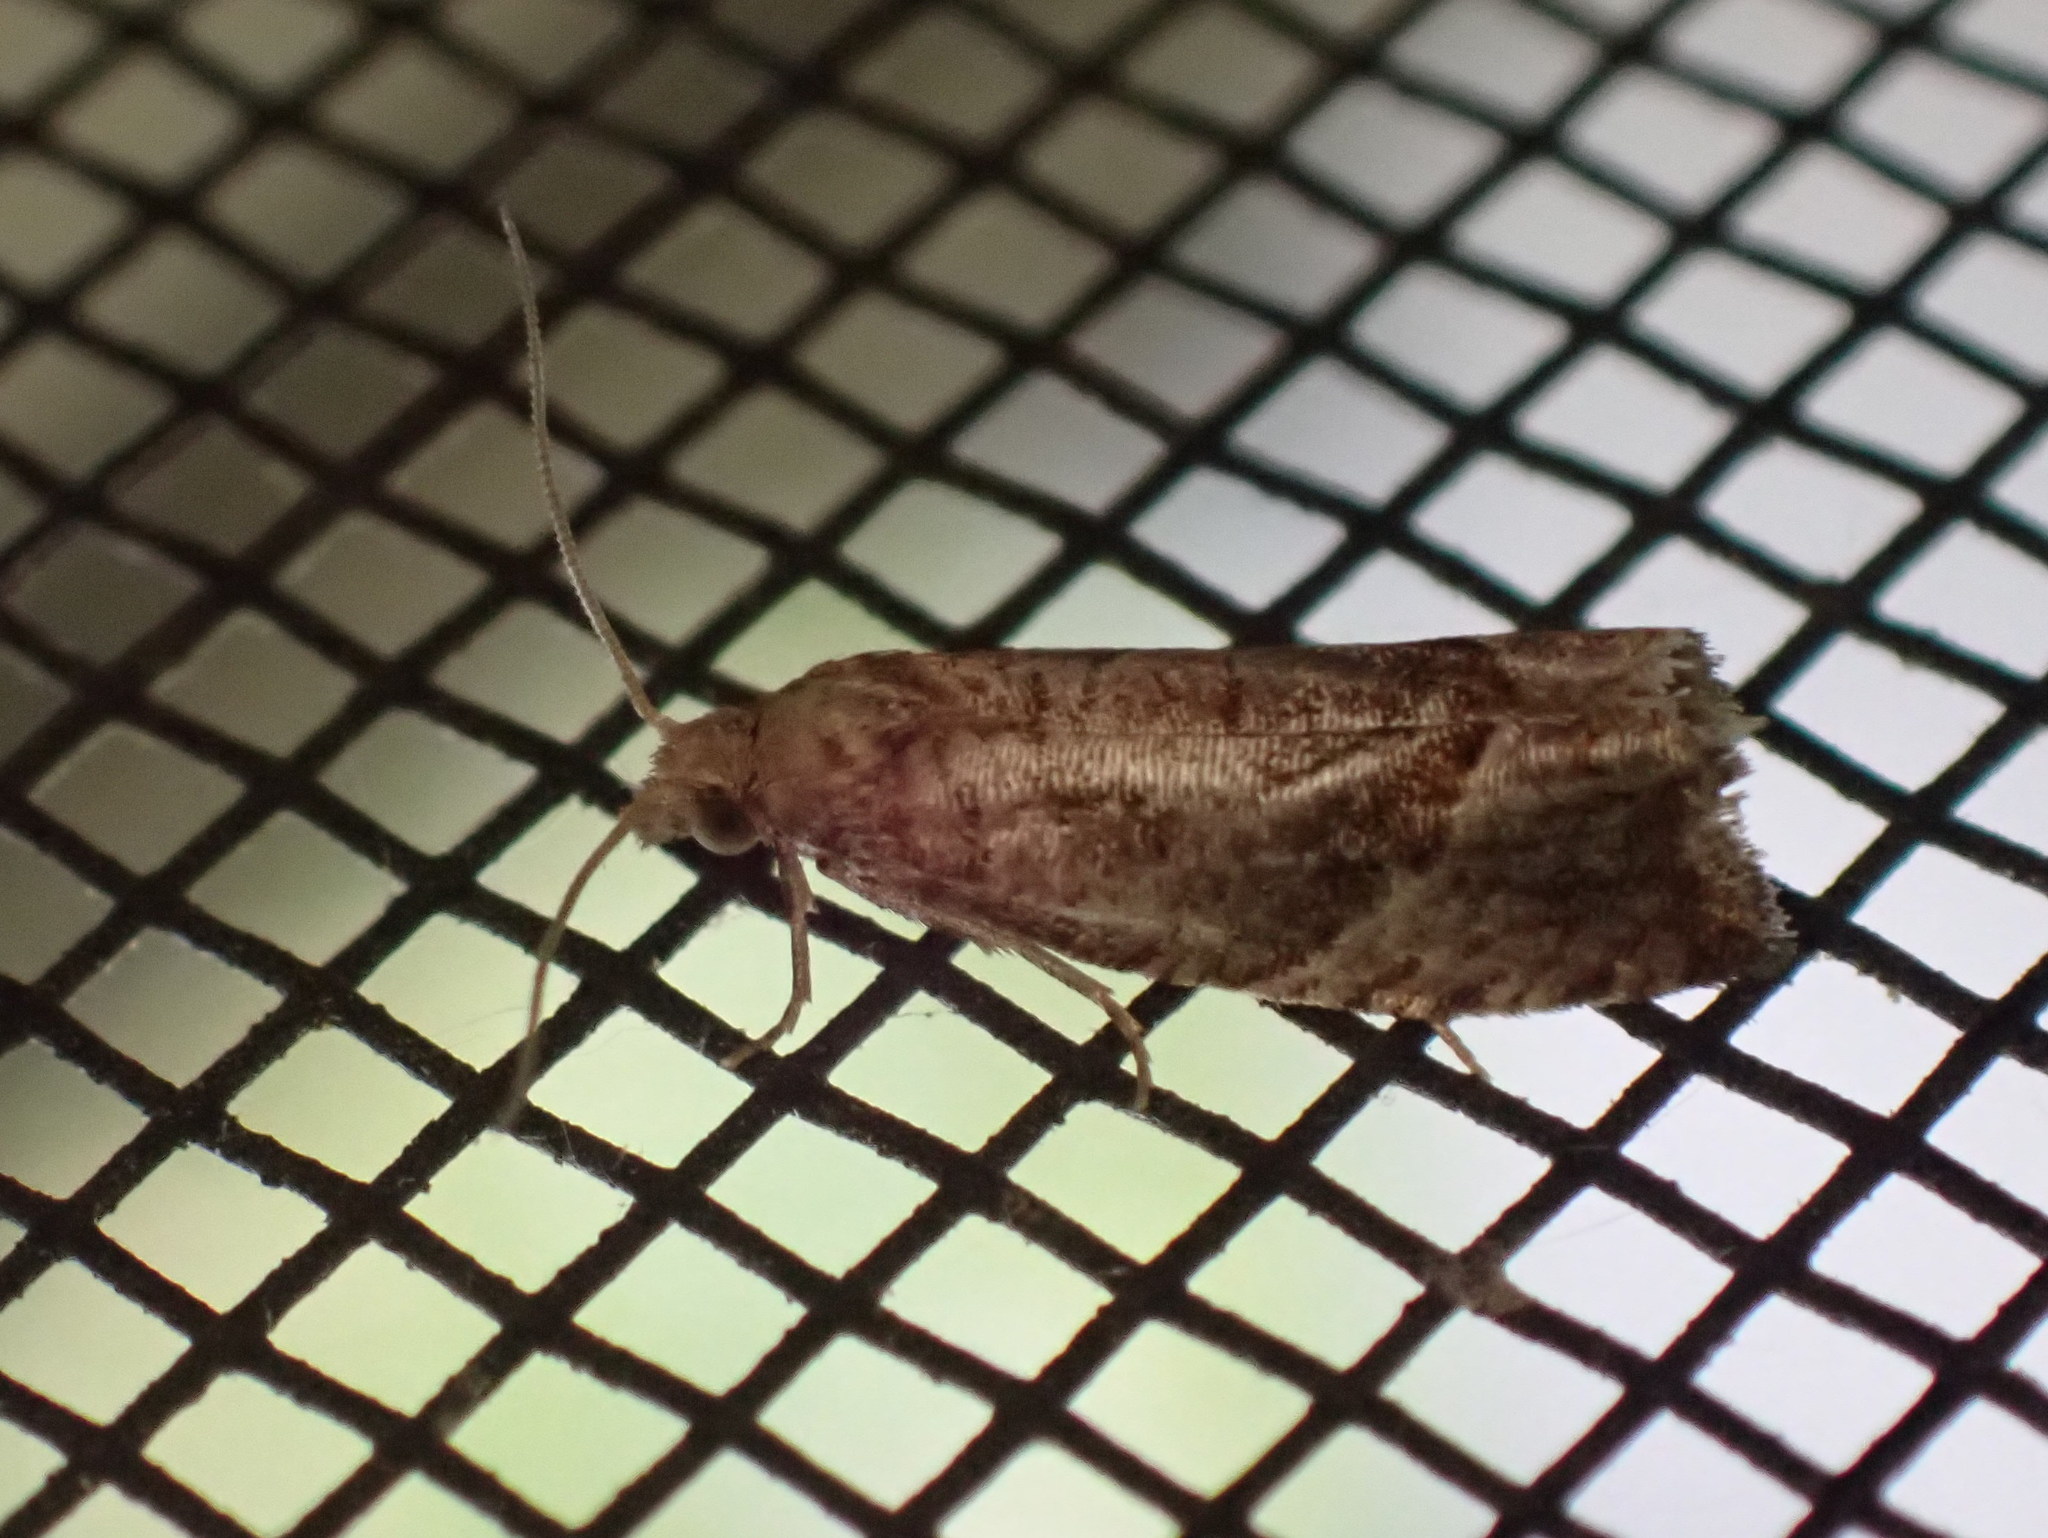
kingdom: Animalia
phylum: Arthropoda
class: Insecta
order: Lepidoptera
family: Tortricidae
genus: Pelochrista
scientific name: Pelochrista derelicta
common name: Derelict pelochrista moth
